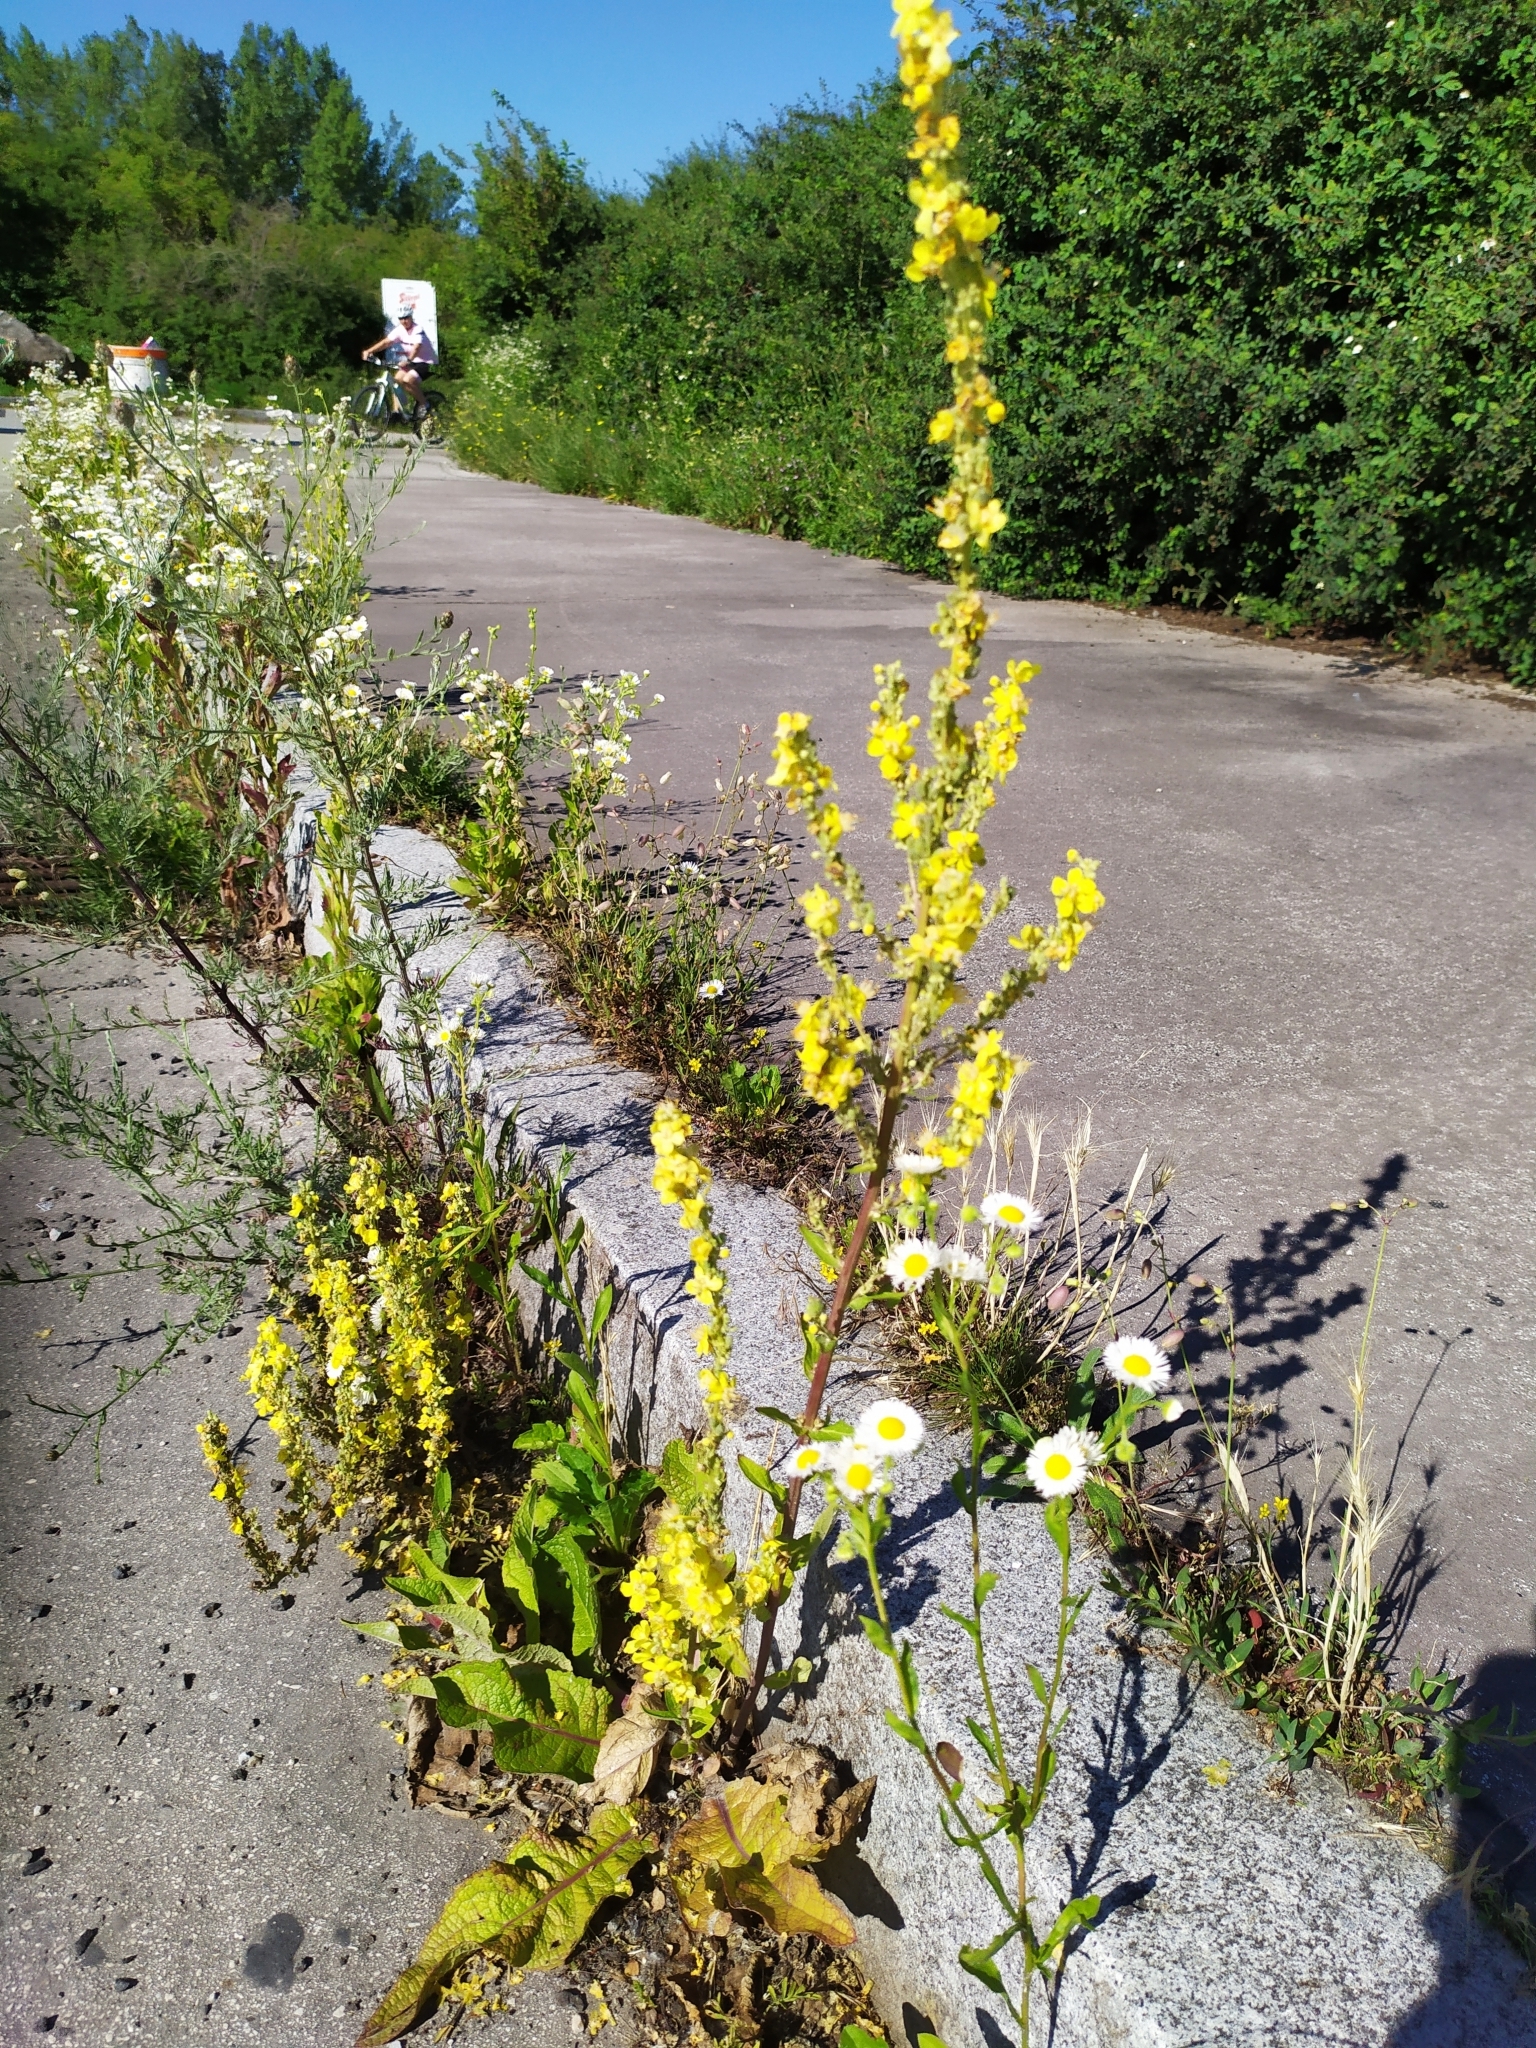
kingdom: Plantae
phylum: Tracheophyta
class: Magnoliopsida
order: Lamiales
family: Scrophulariaceae
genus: Verbascum
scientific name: Verbascum lychnitis
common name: White mullein
